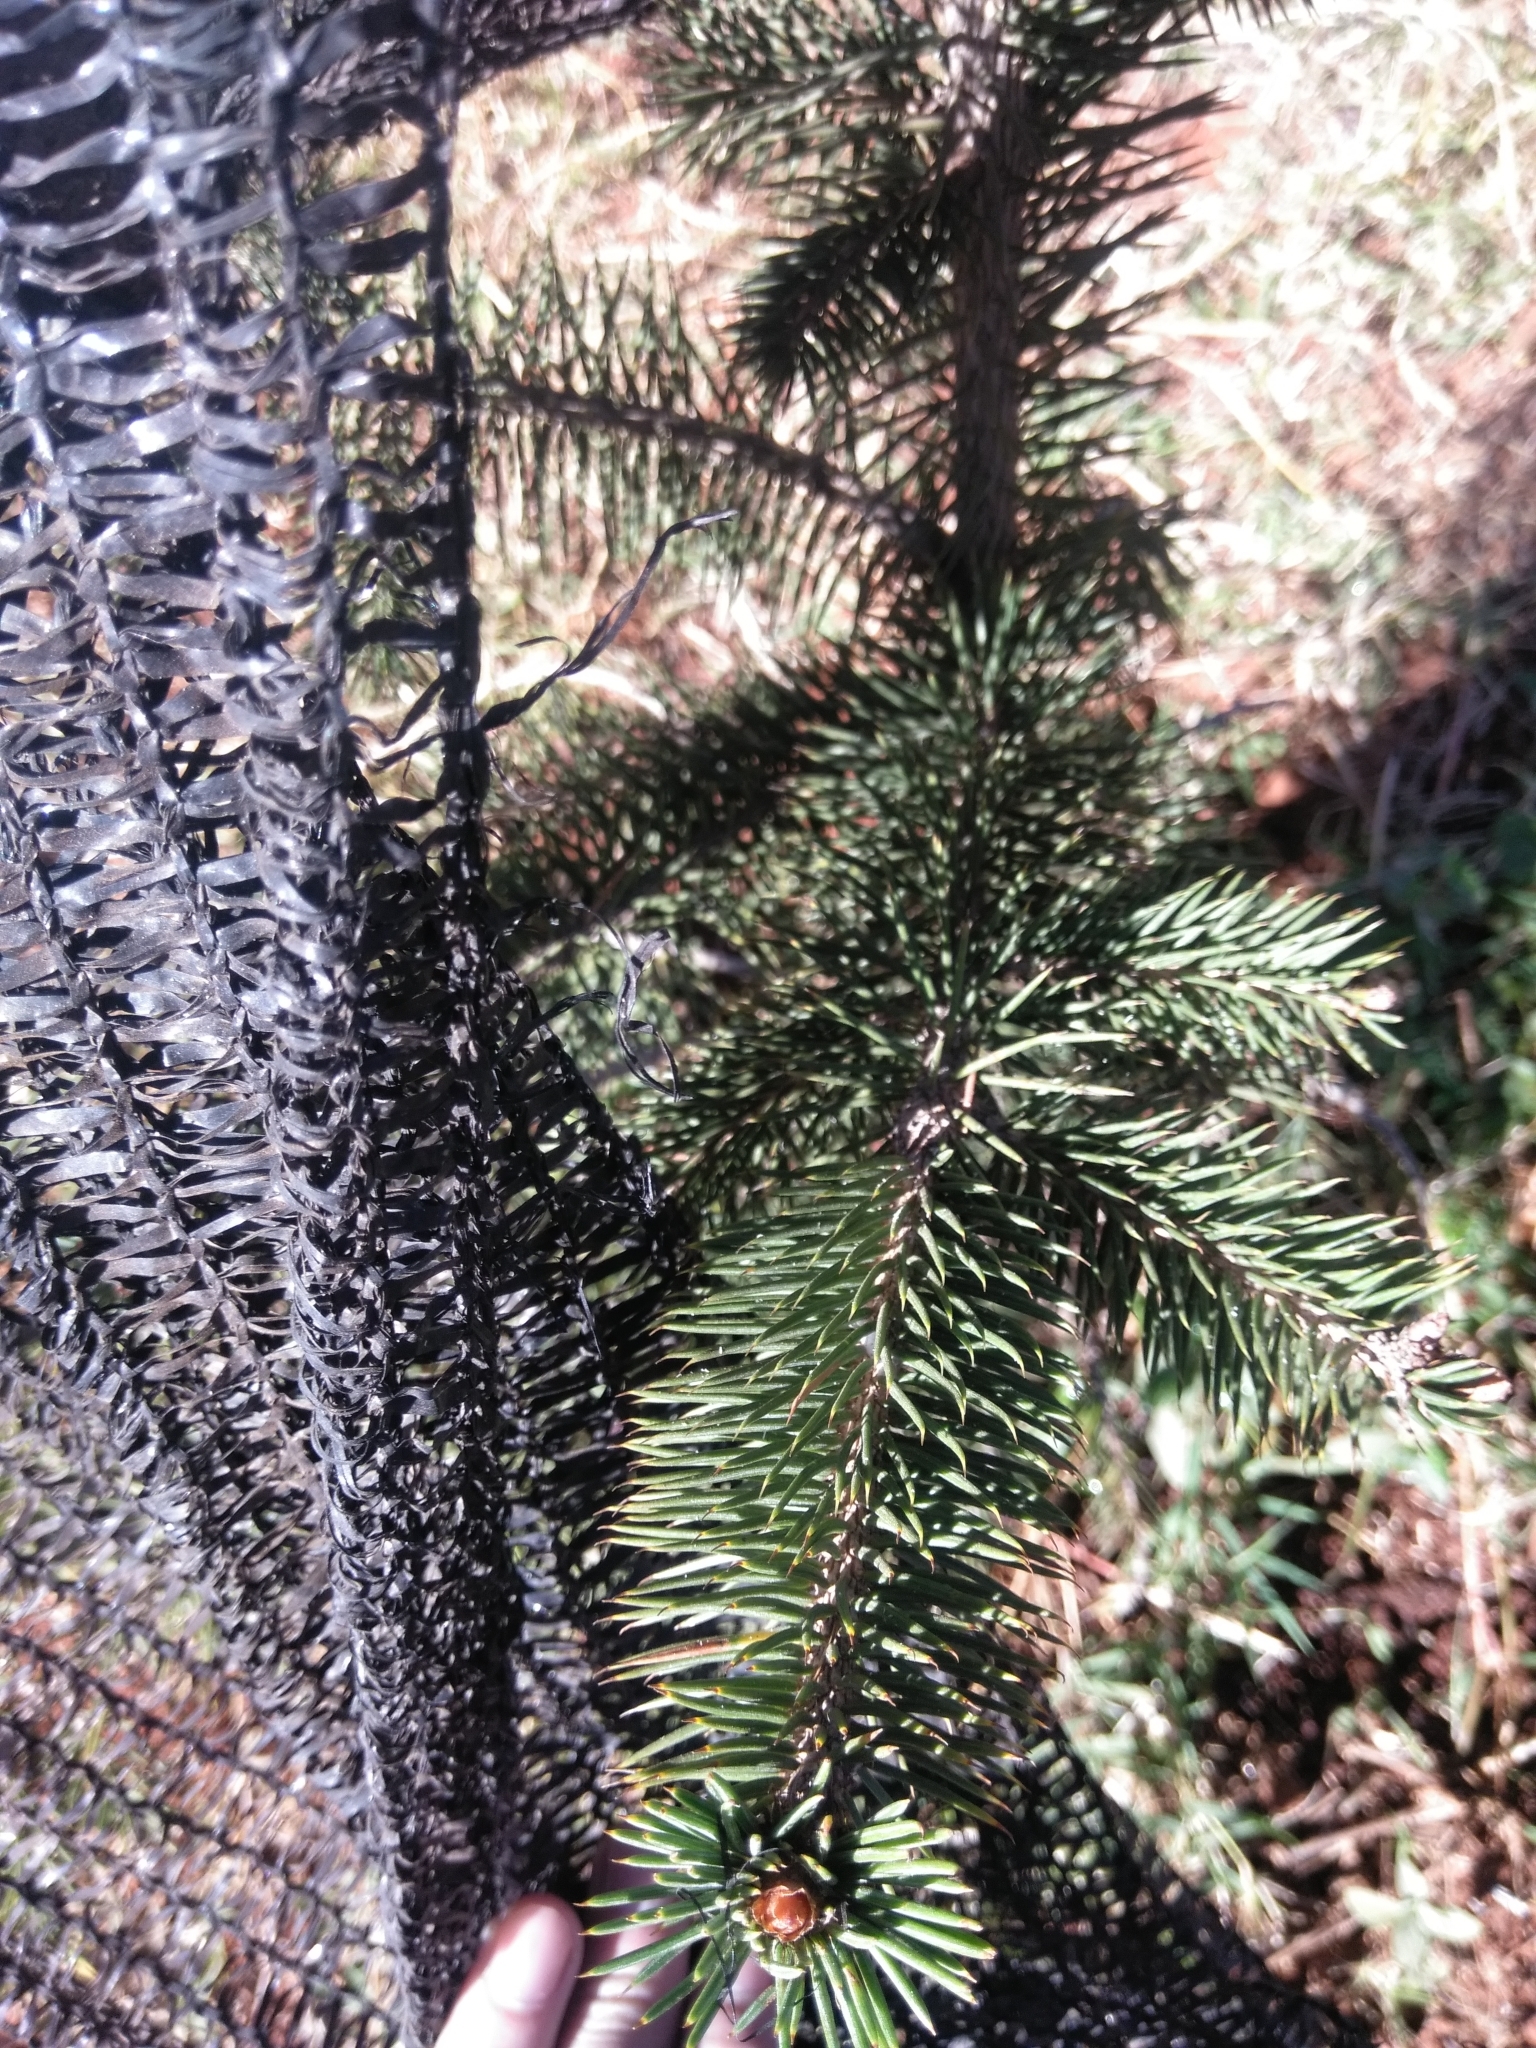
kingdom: Plantae
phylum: Tracheophyta
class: Pinopsida
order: Pinales
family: Pinaceae
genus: Abies
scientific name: Abies religiosa
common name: Sacred fir
